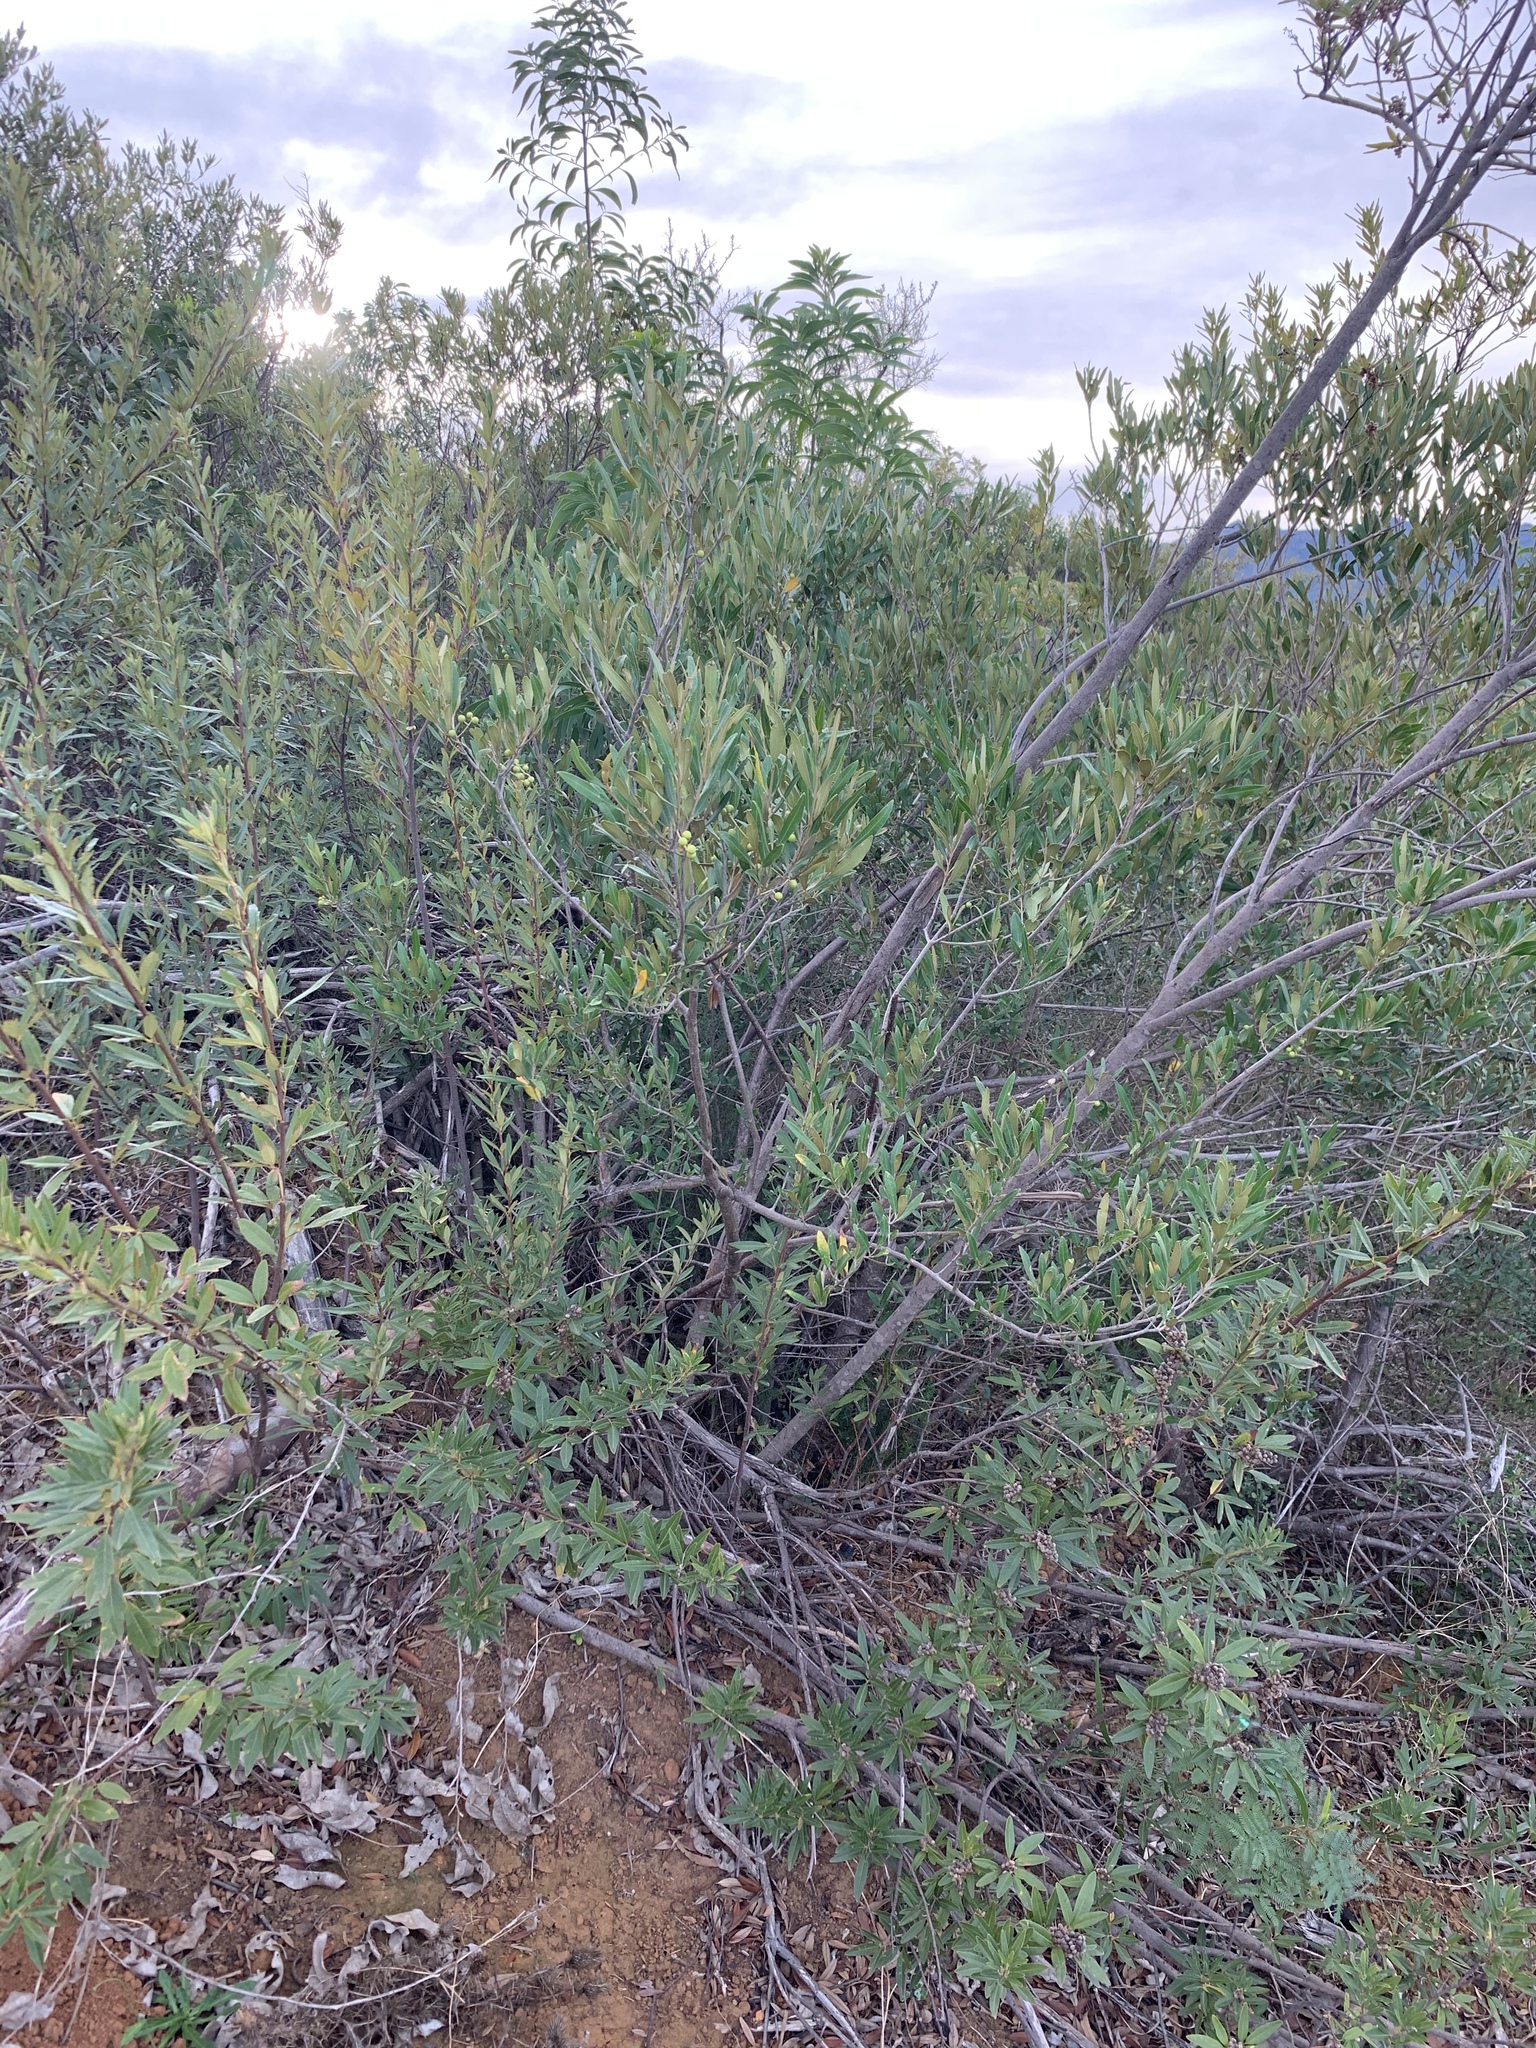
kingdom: Plantae
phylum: Tracheophyta
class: Magnoliopsida
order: Lamiales
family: Oleaceae
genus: Olea
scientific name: Olea europaea
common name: Olive
